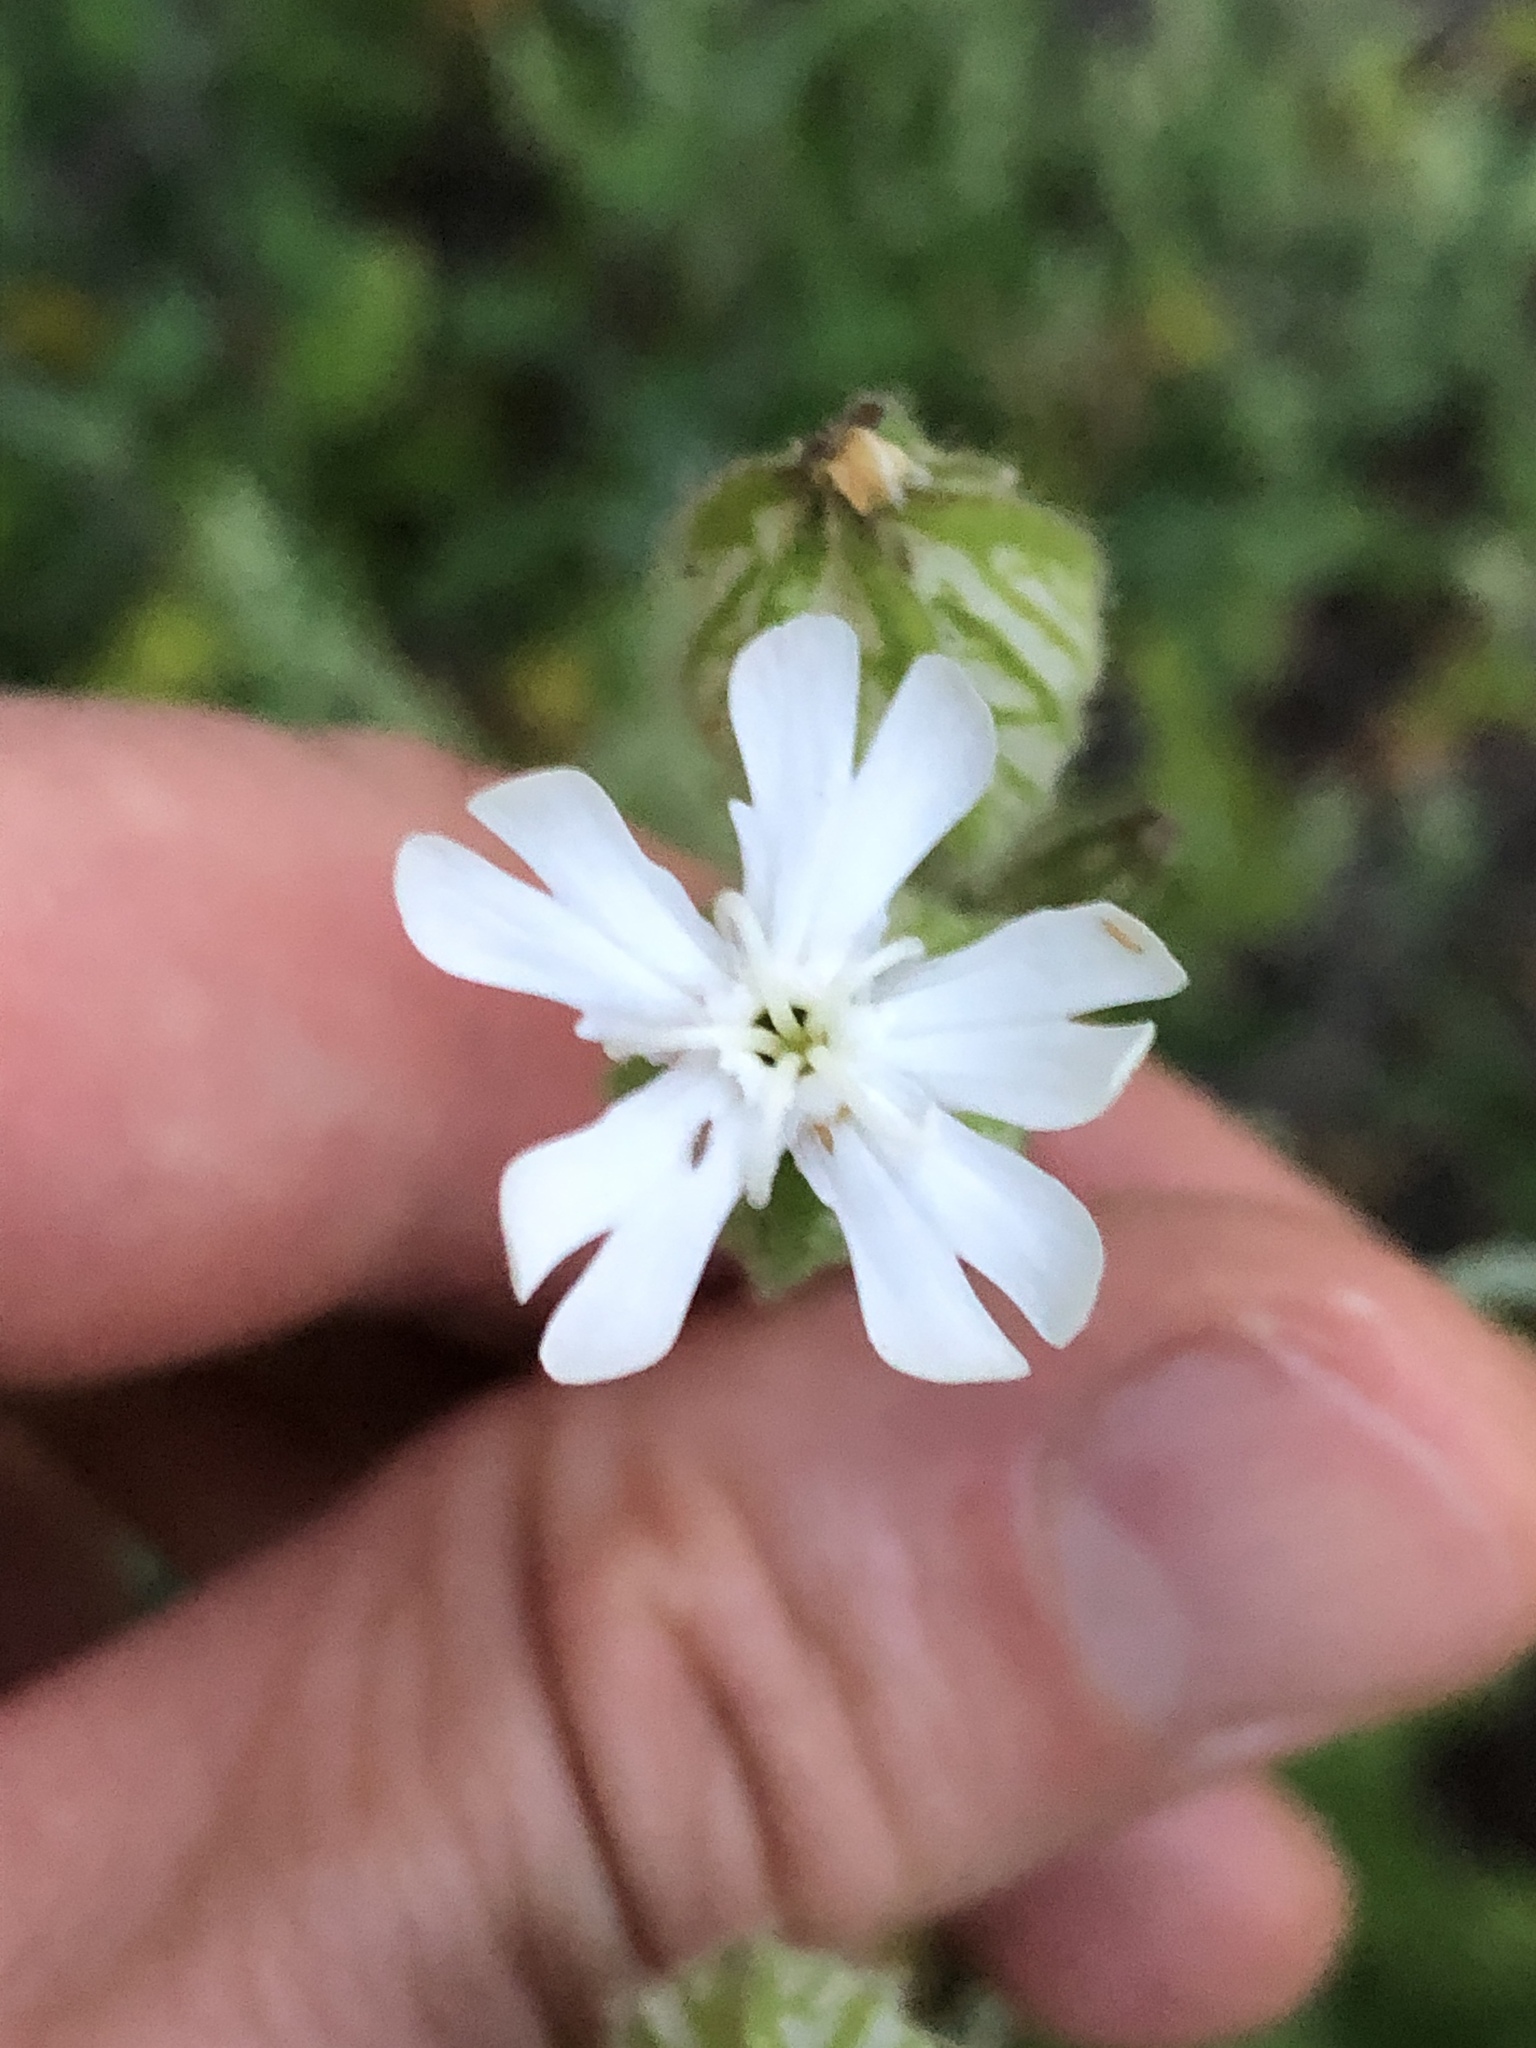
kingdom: Plantae
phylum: Tracheophyta
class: Magnoliopsida
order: Caryophyllales
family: Caryophyllaceae
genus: Silene
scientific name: Silene latifolia
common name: White campion
